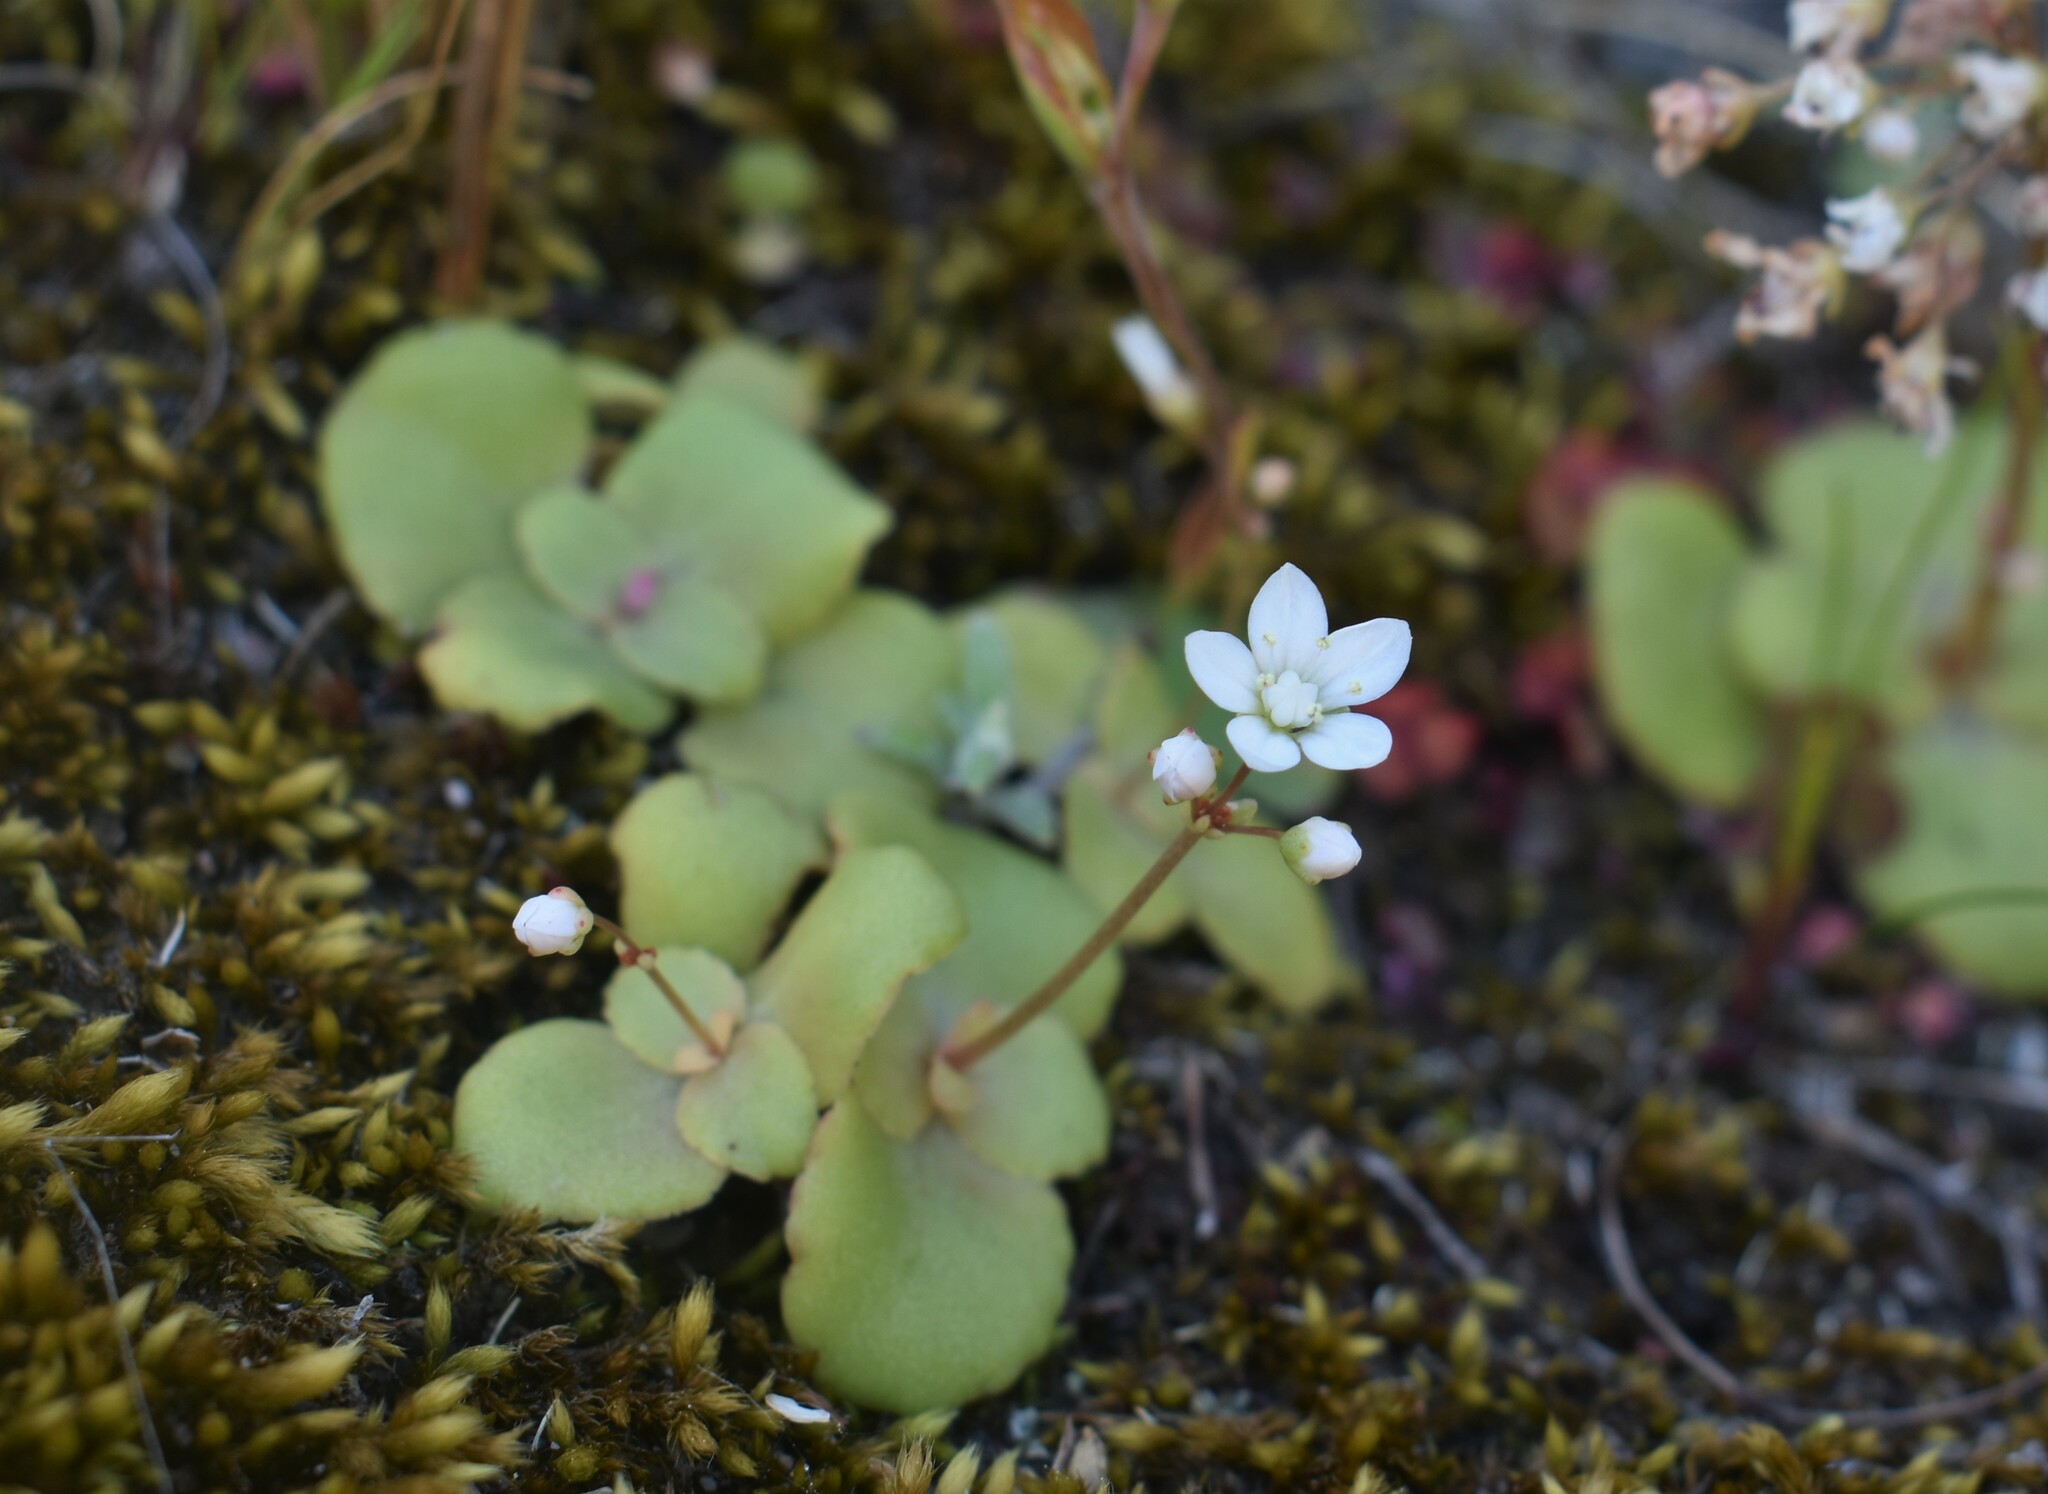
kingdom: Plantae
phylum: Tracheophyta
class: Magnoliopsida
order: Saxifragales
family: Crassulaceae
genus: Crassula
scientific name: Crassula capensis
